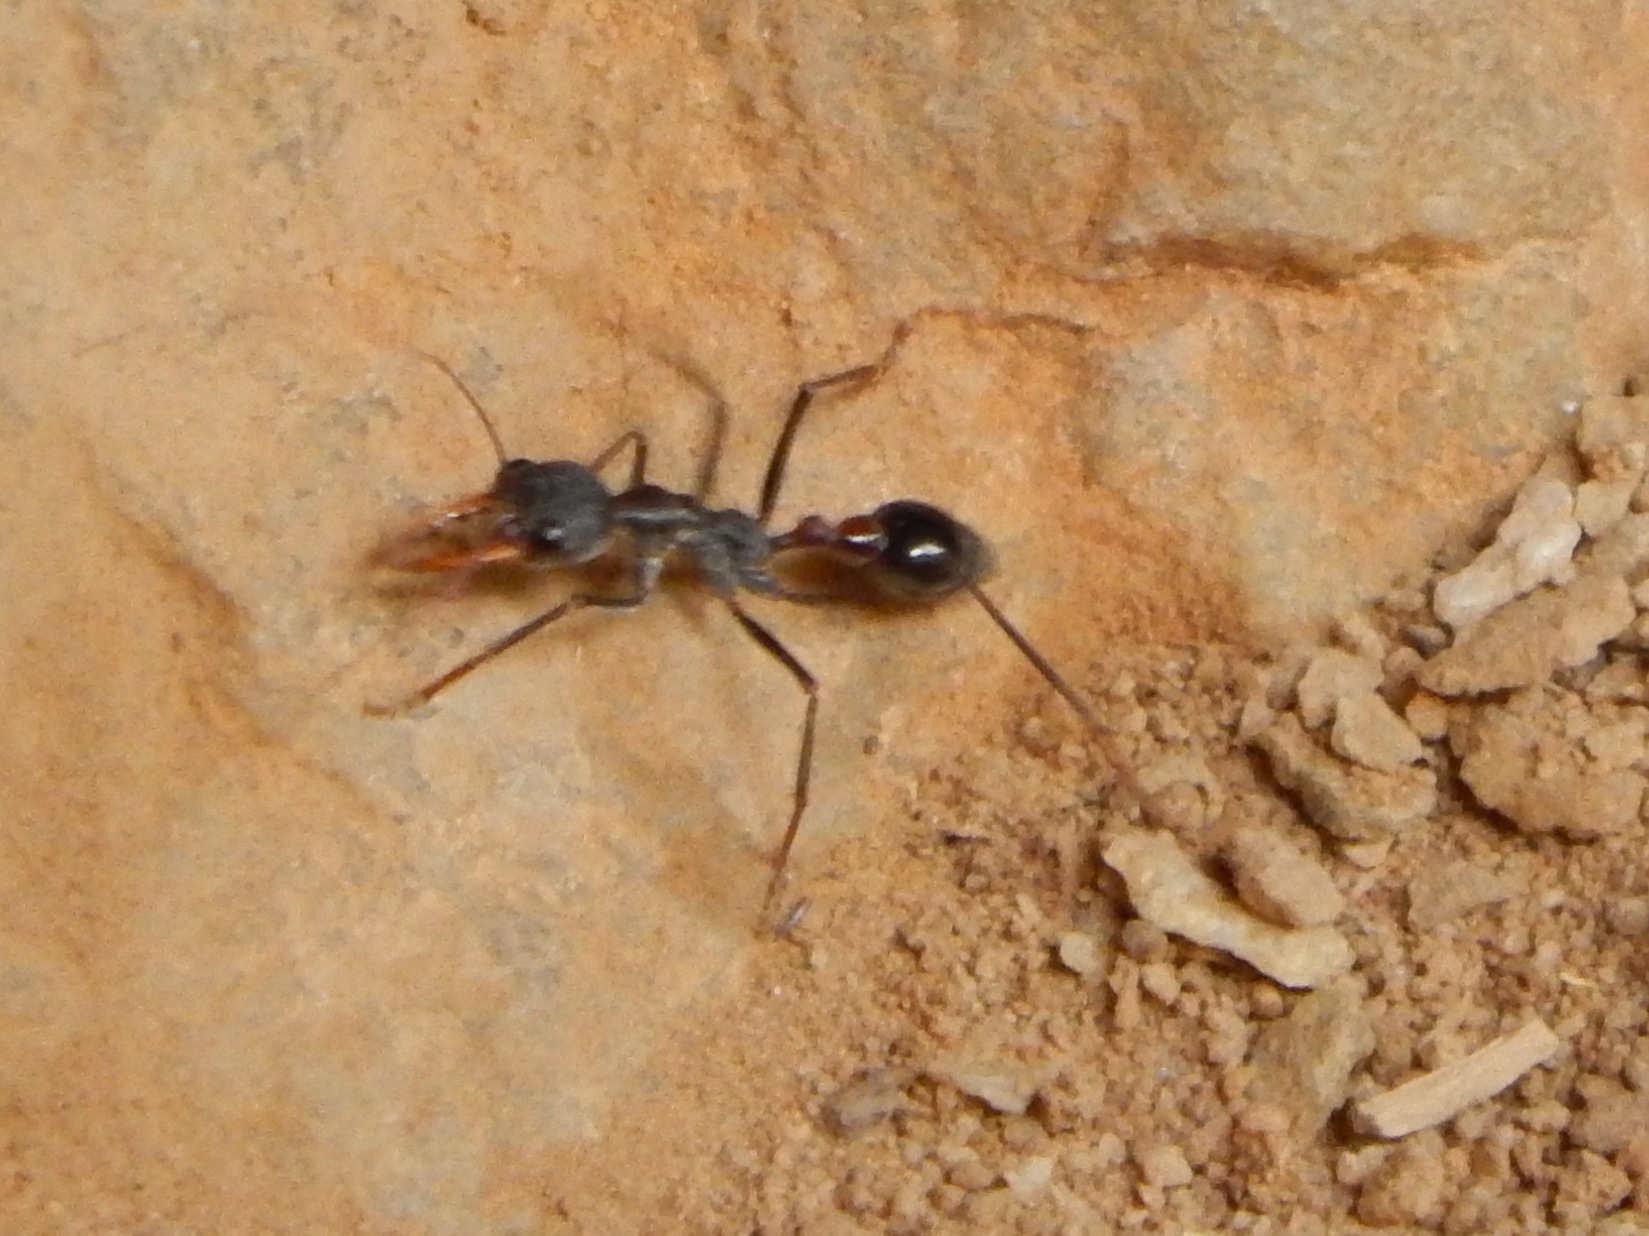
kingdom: Animalia
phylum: Arthropoda
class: Insecta
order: Hymenoptera
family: Formicidae
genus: Myrmecia
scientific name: Myrmecia forceps
